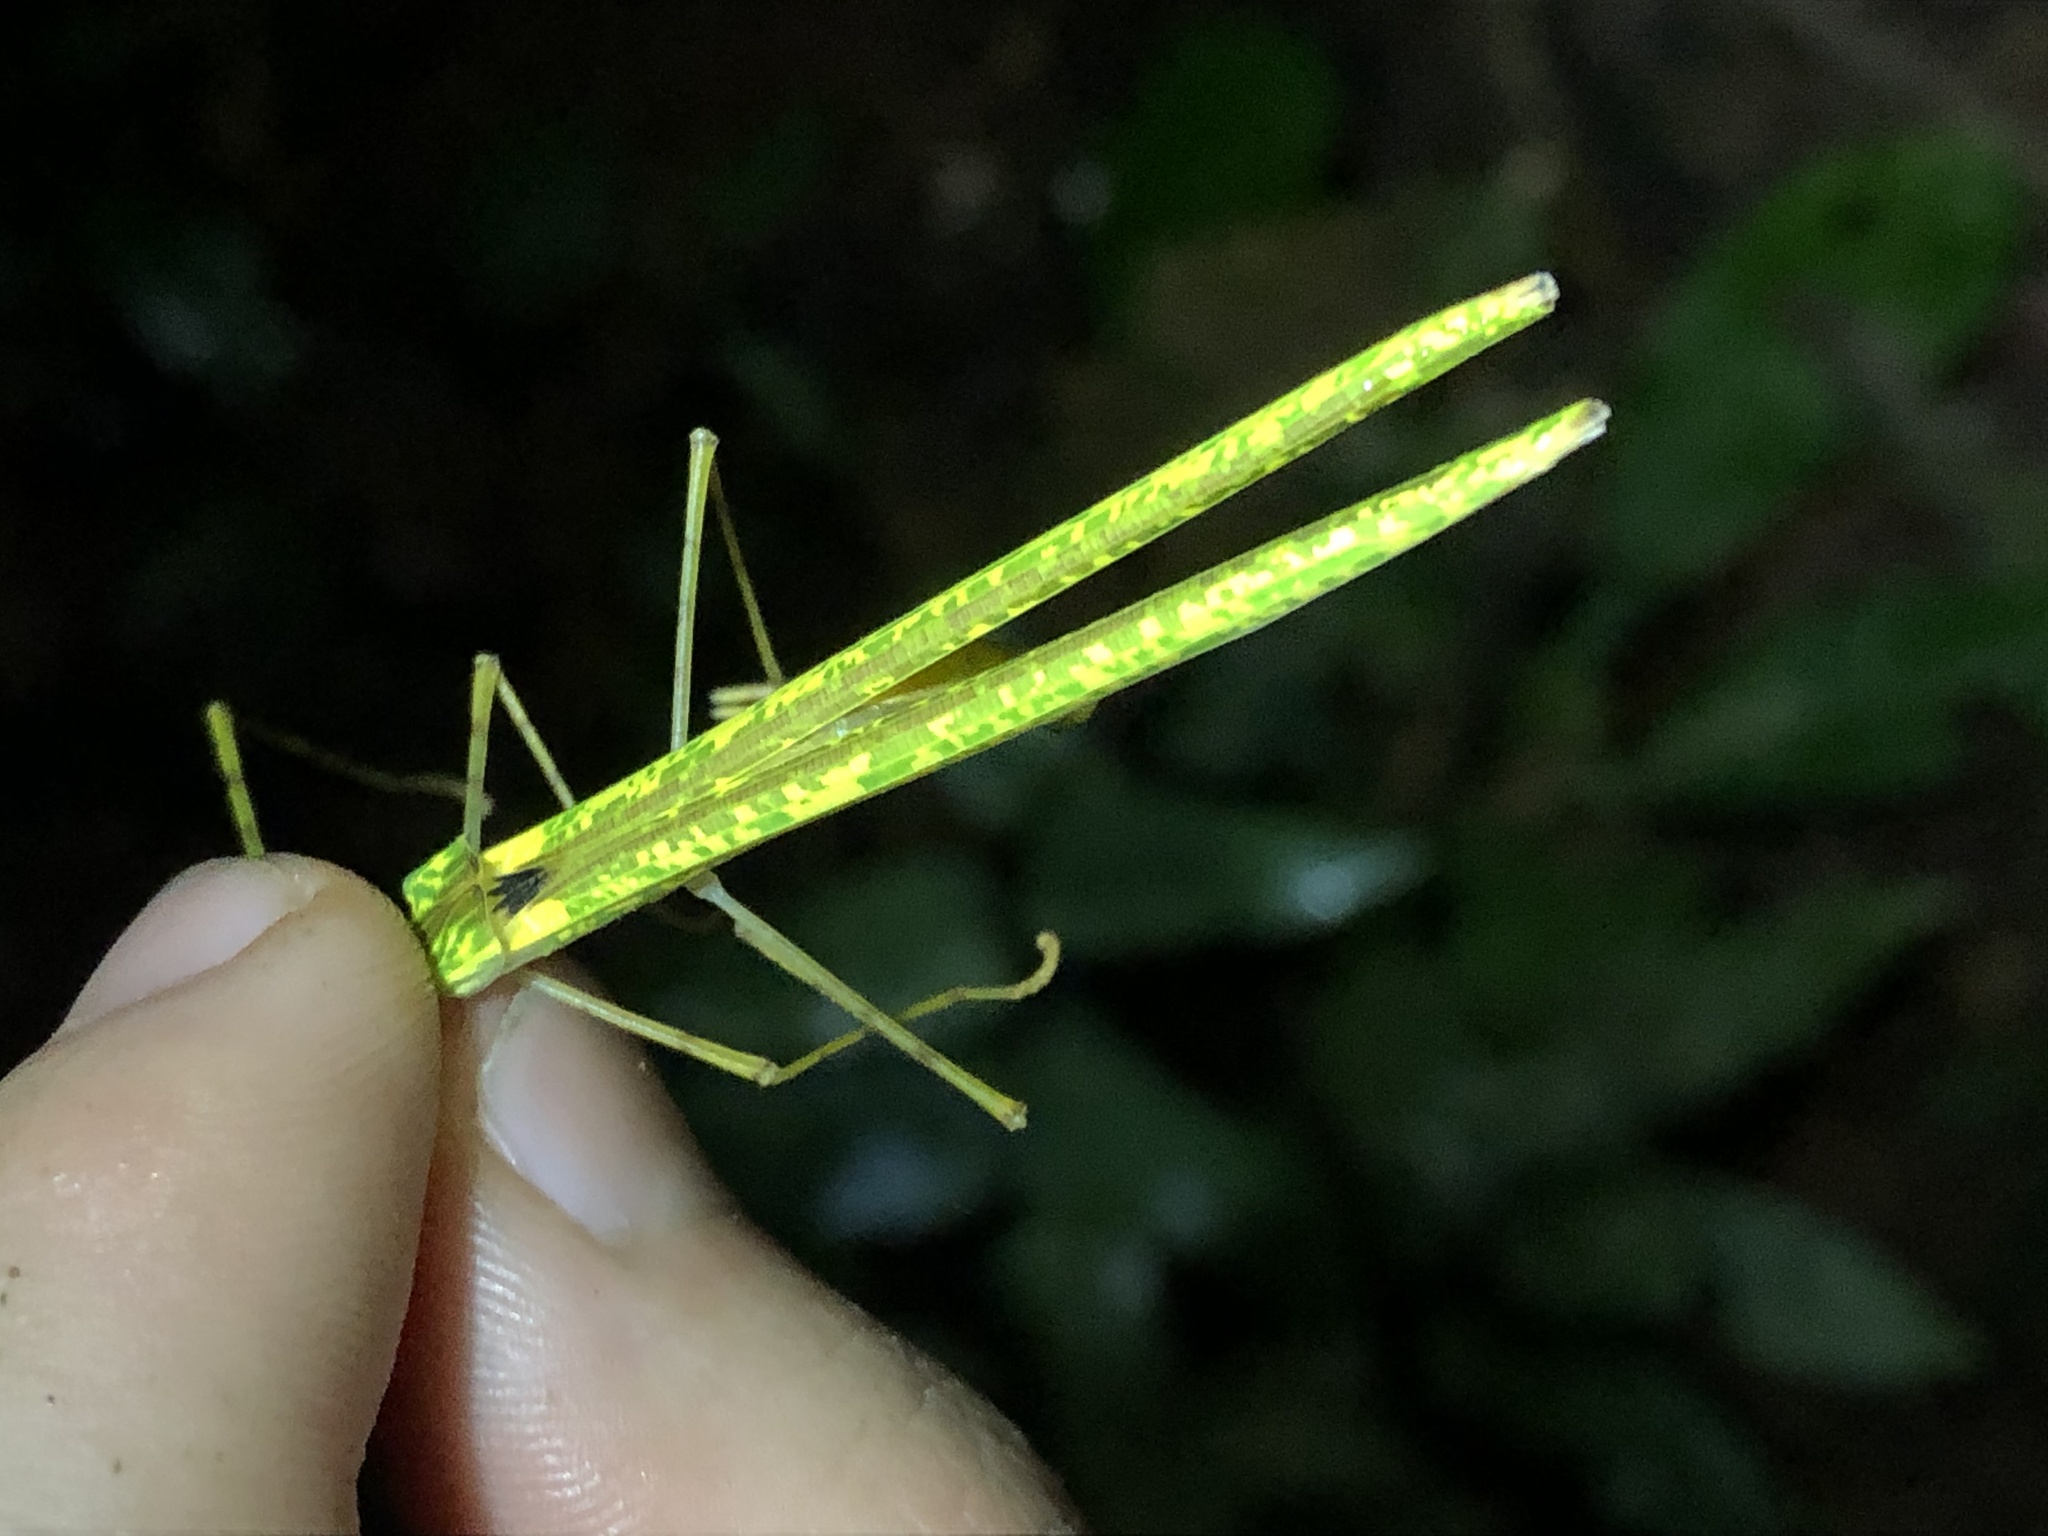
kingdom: Animalia
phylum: Arthropoda
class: Insecta
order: Phasmida
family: Pseudophasmatidae
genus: Cesaphasma
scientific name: Cesaphasma servillei
